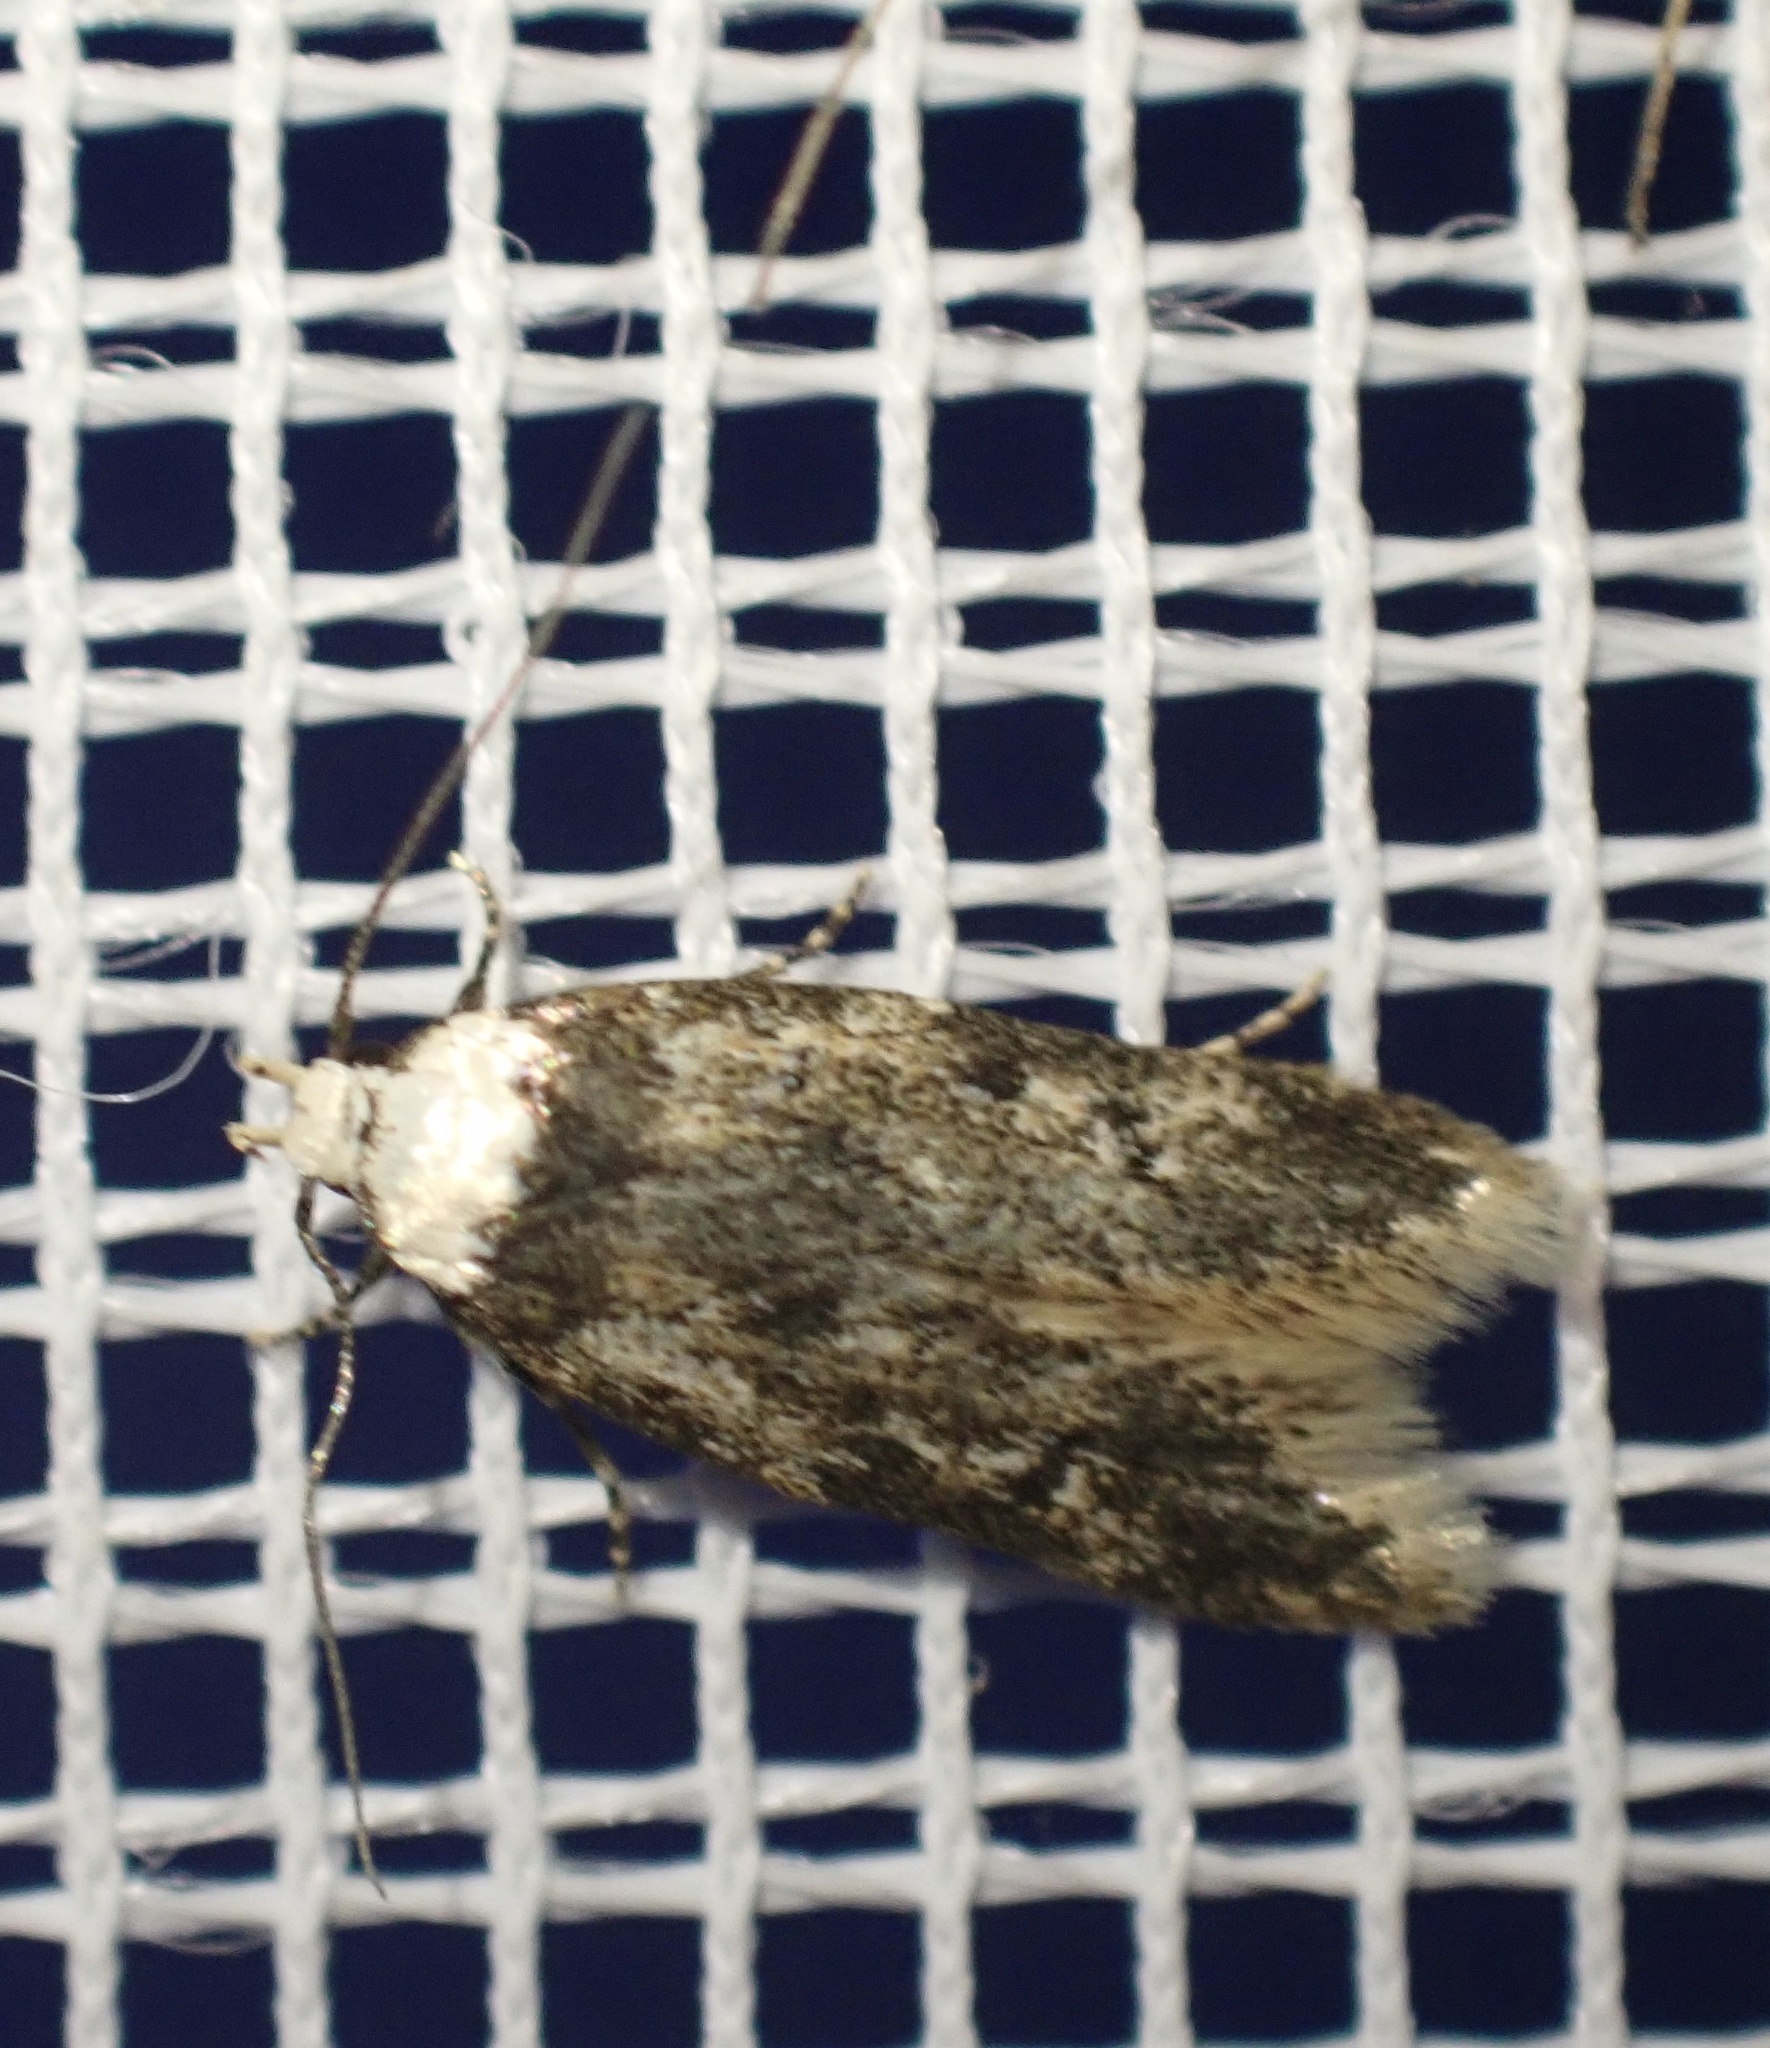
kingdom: Animalia
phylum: Arthropoda
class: Insecta
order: Lepidoptera
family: Oecophoridae
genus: Endrosis
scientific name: Endrosis sarcitrella
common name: White-shouldered house moth
